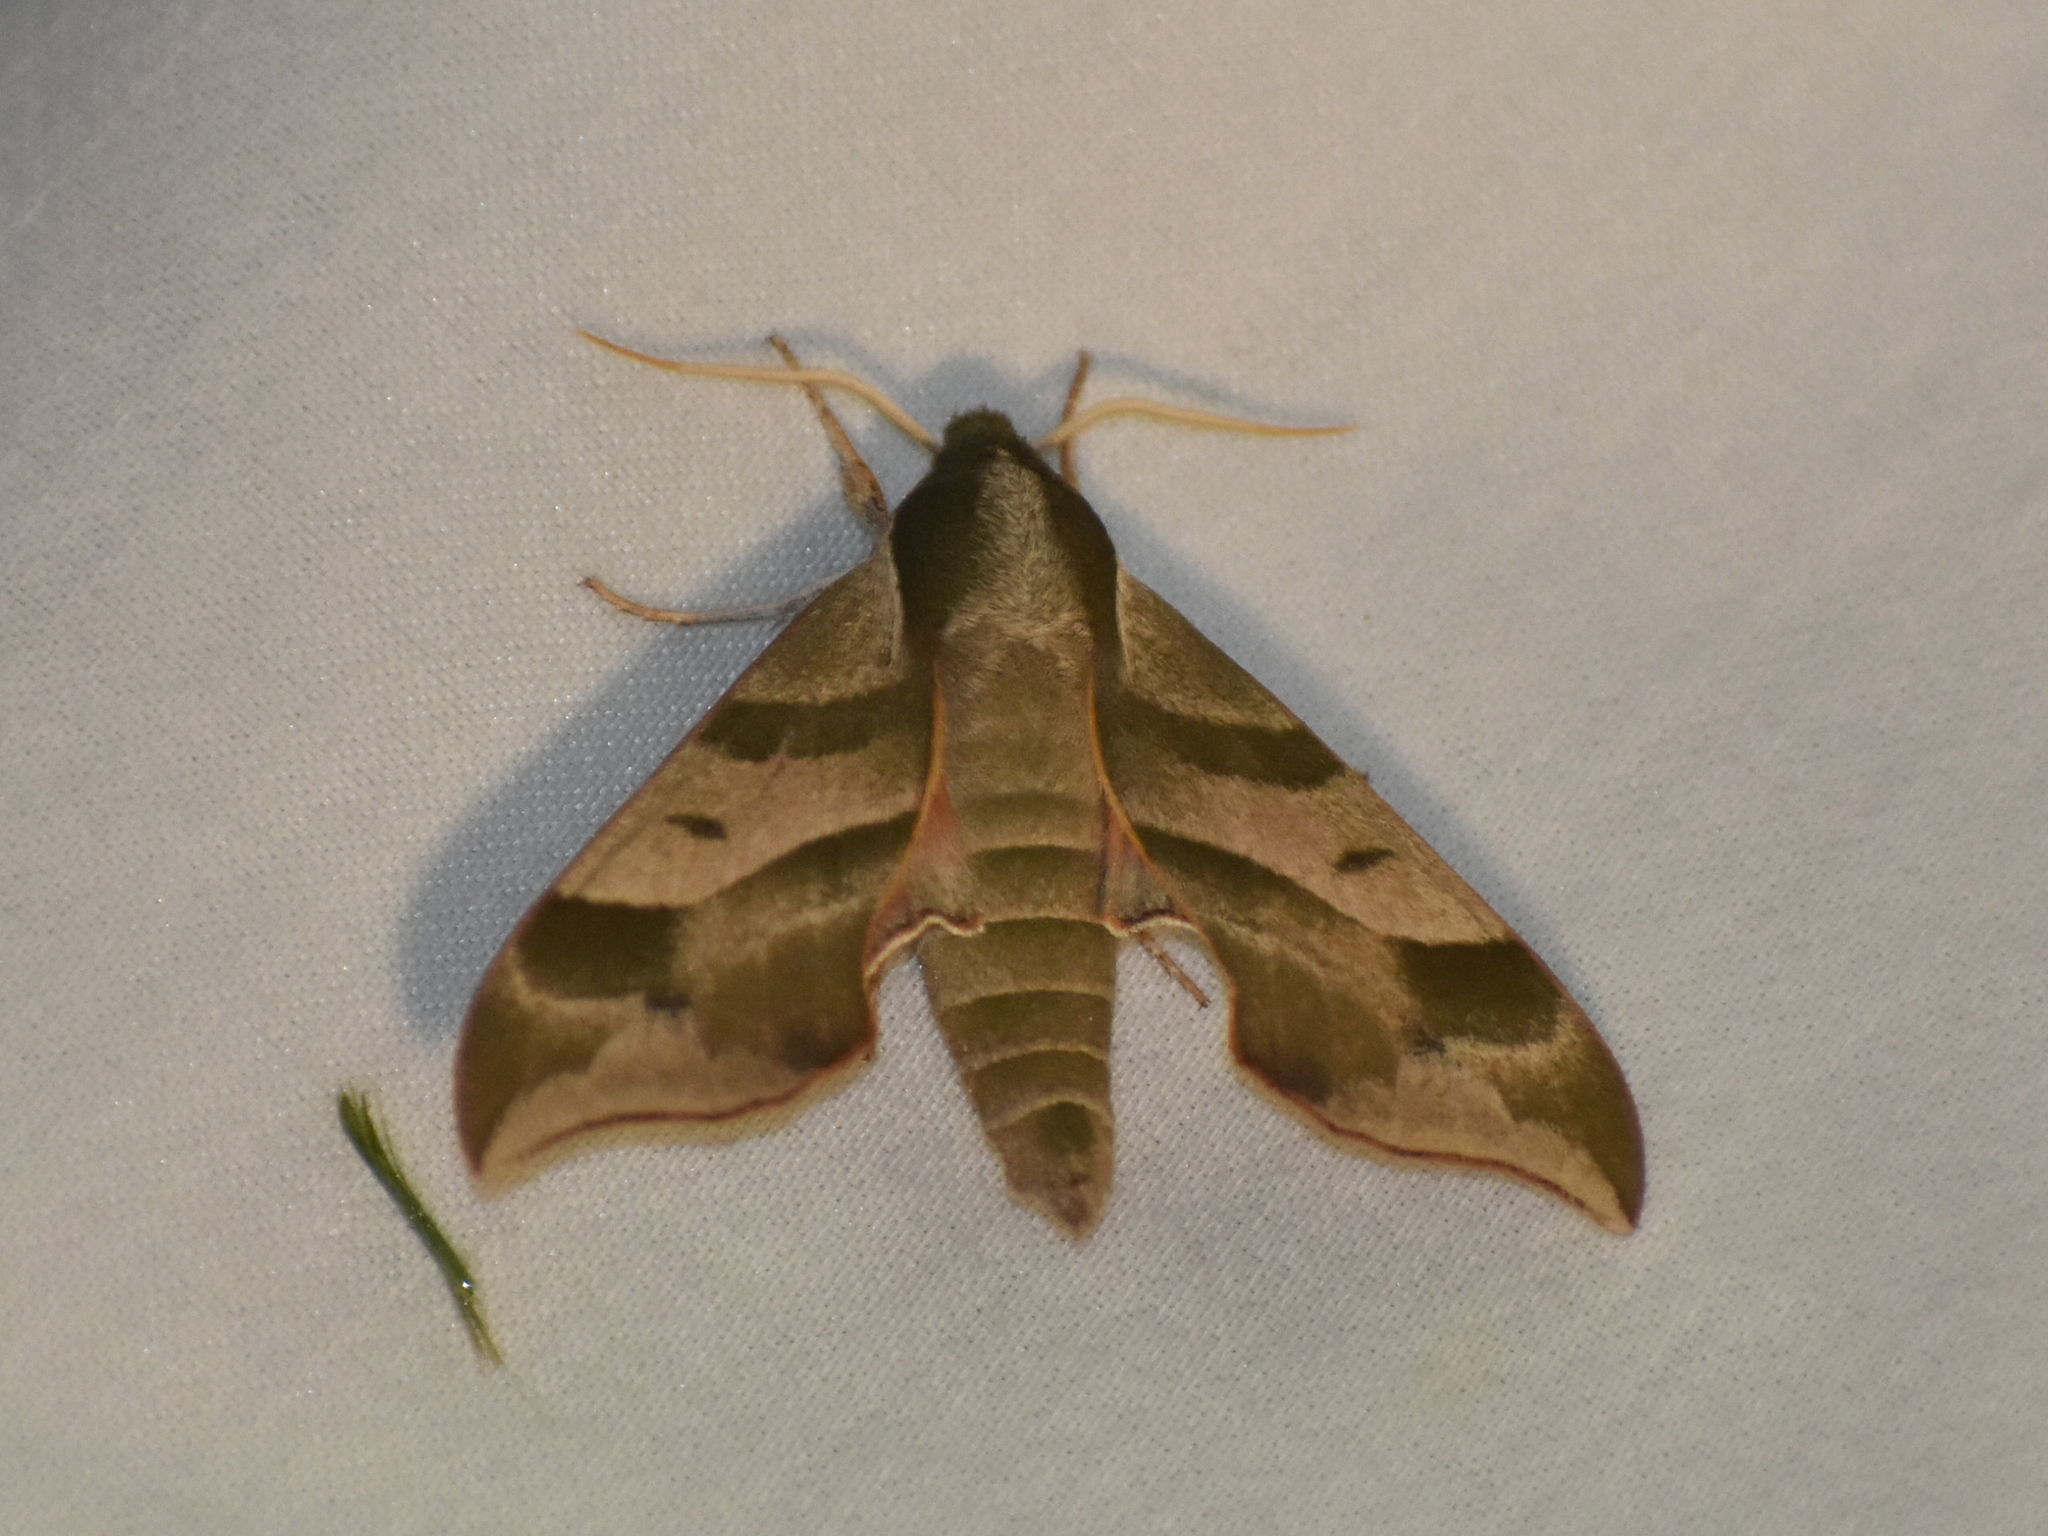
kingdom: Animalia
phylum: Arthropoda
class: Insecta
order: Lepidoptera
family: Sphingidae
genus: Darapsa
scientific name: Darapsa myron
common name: Hog sphinx
